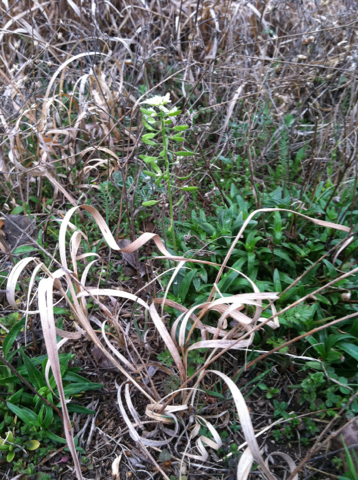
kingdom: Plantae
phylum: Tracheophyta
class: Magnoliopsida
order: Brassicales
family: Brassicaceae
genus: Tomostima
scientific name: Tomostima cuneifolia
